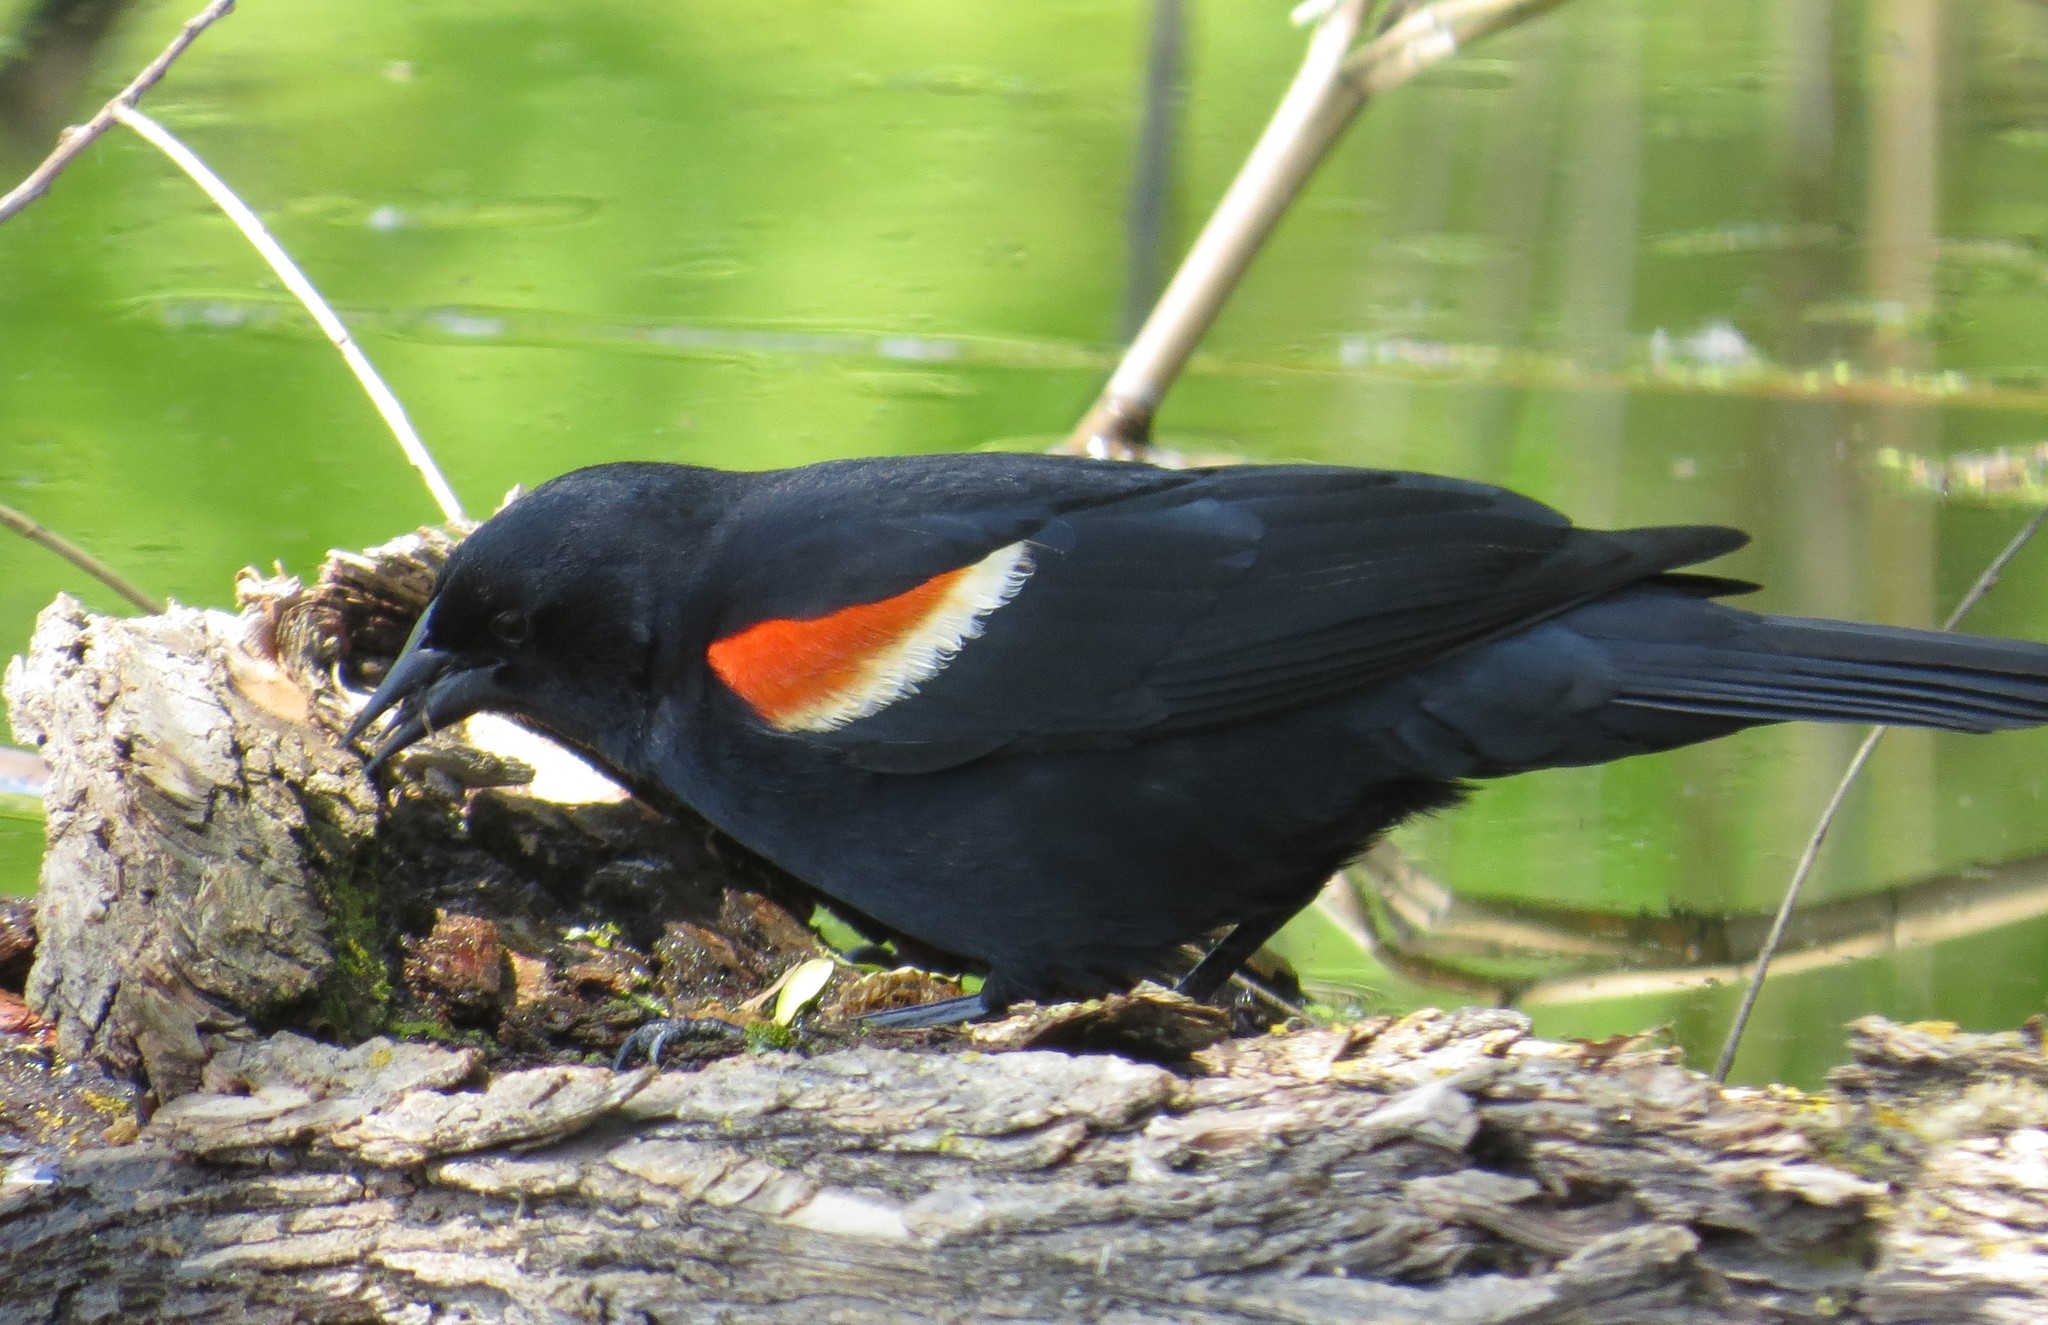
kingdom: Animalia
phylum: Chordata
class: Aves
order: Passeriformes
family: Icteridae
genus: Agelaius
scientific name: Agelaius phoeniceus
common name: Red-winged blackbird
